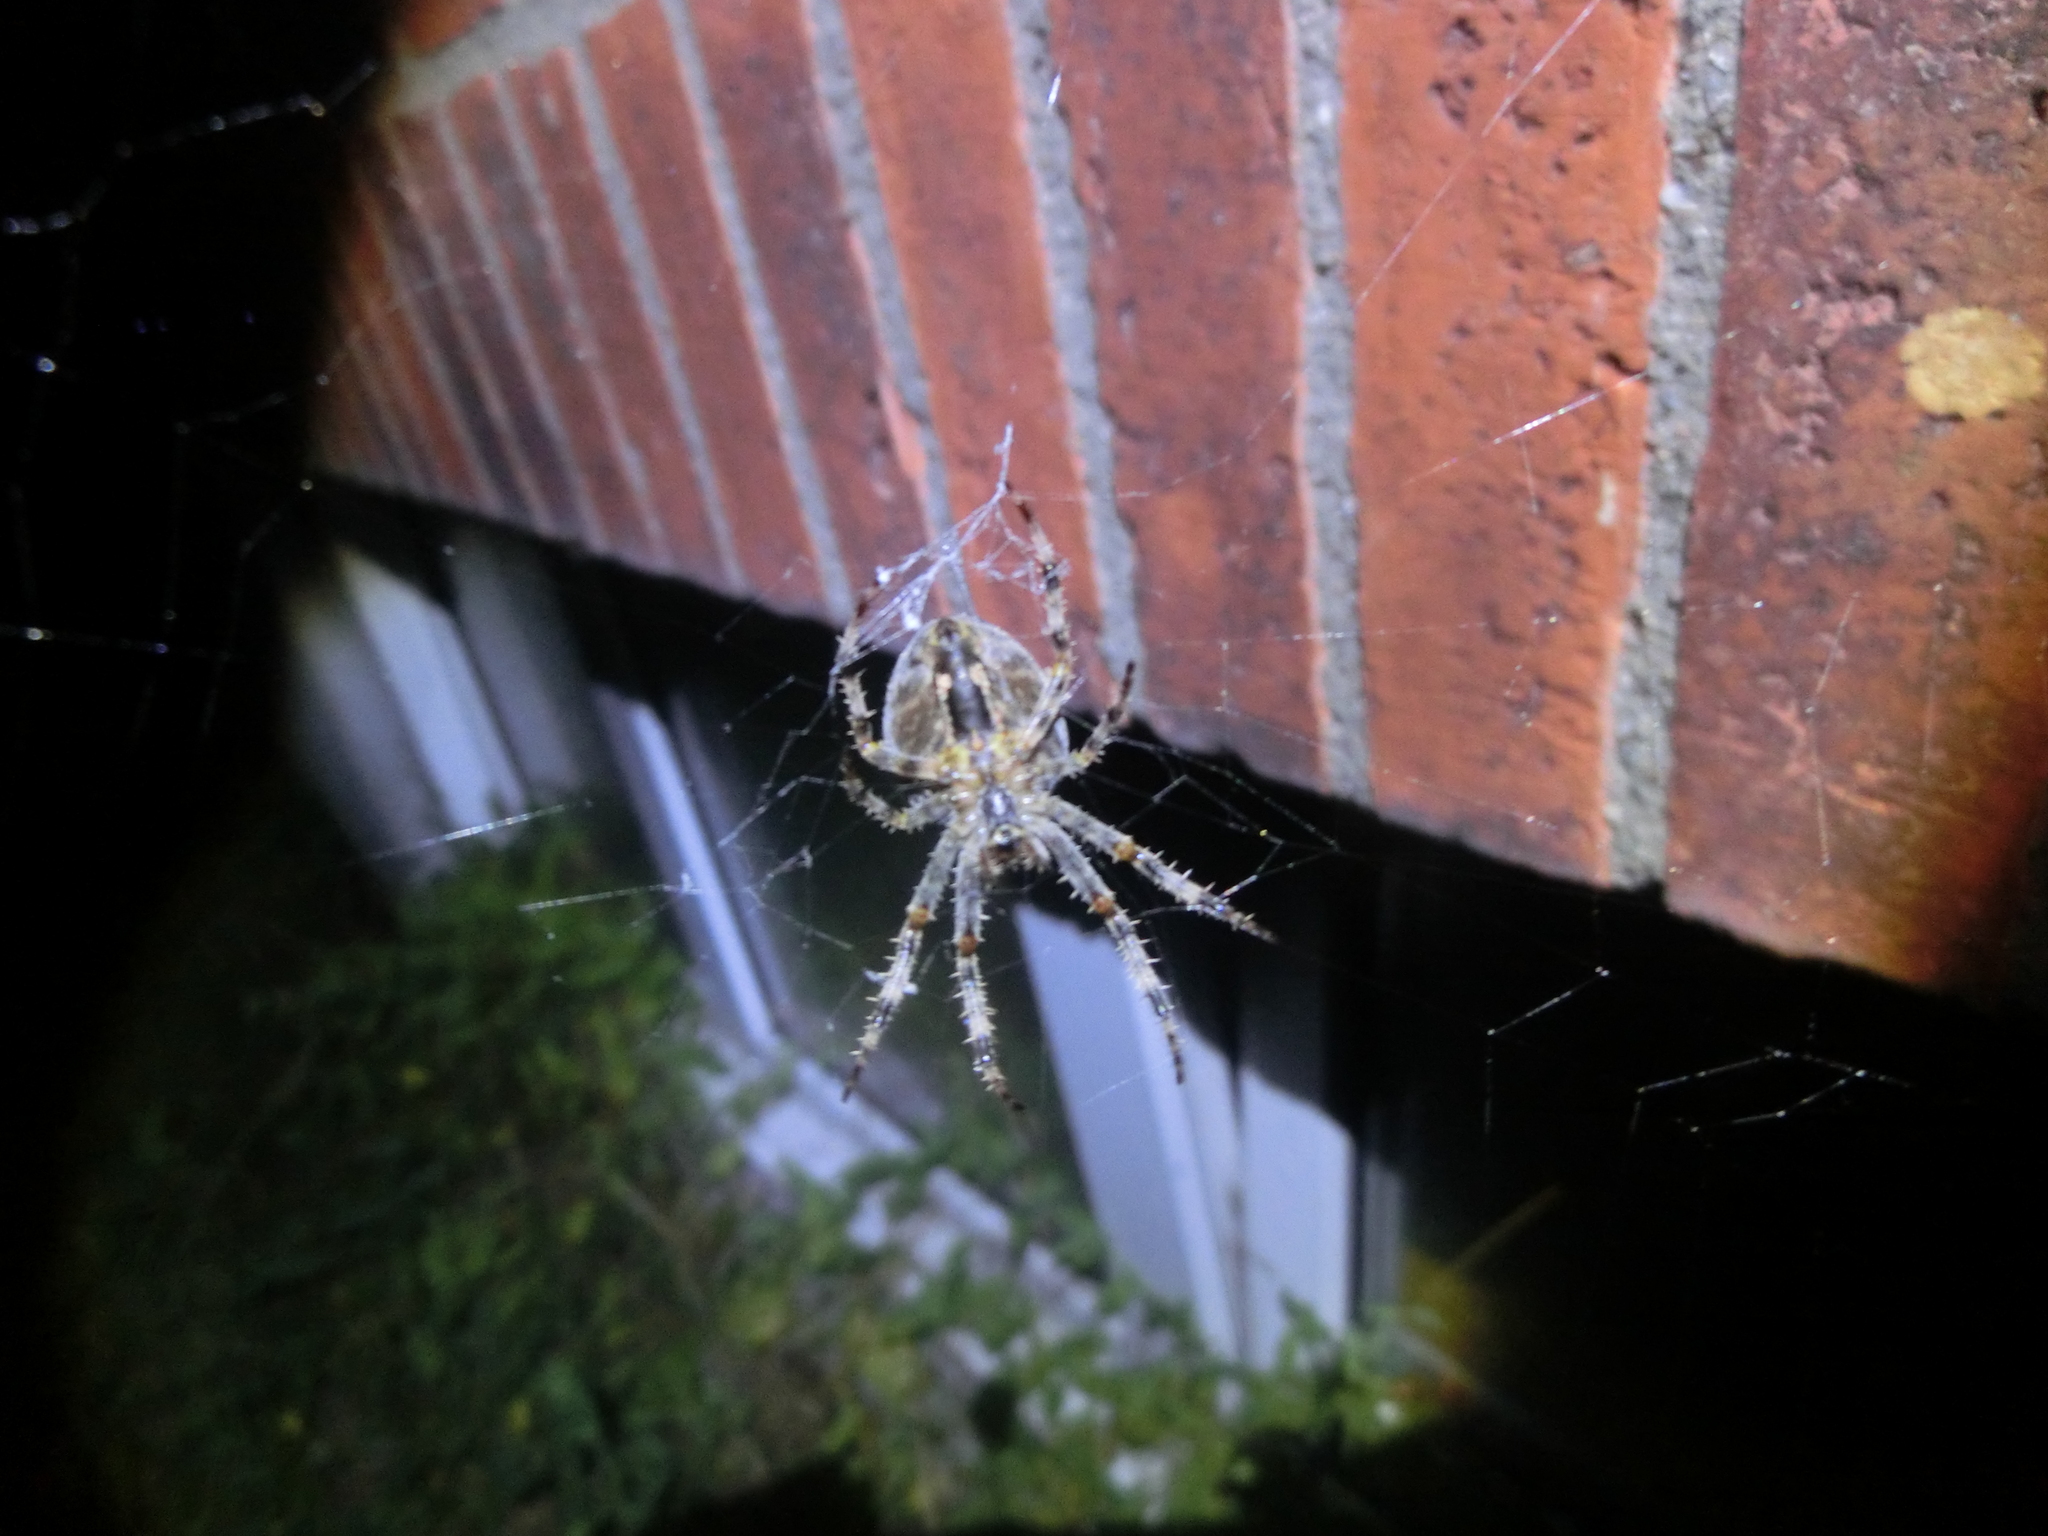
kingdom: Animalia
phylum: Arthropoda
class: Arachnida
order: Araneae
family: Araneidae
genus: Araneus
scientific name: Araneus diadematus
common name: Cross orbweaver
